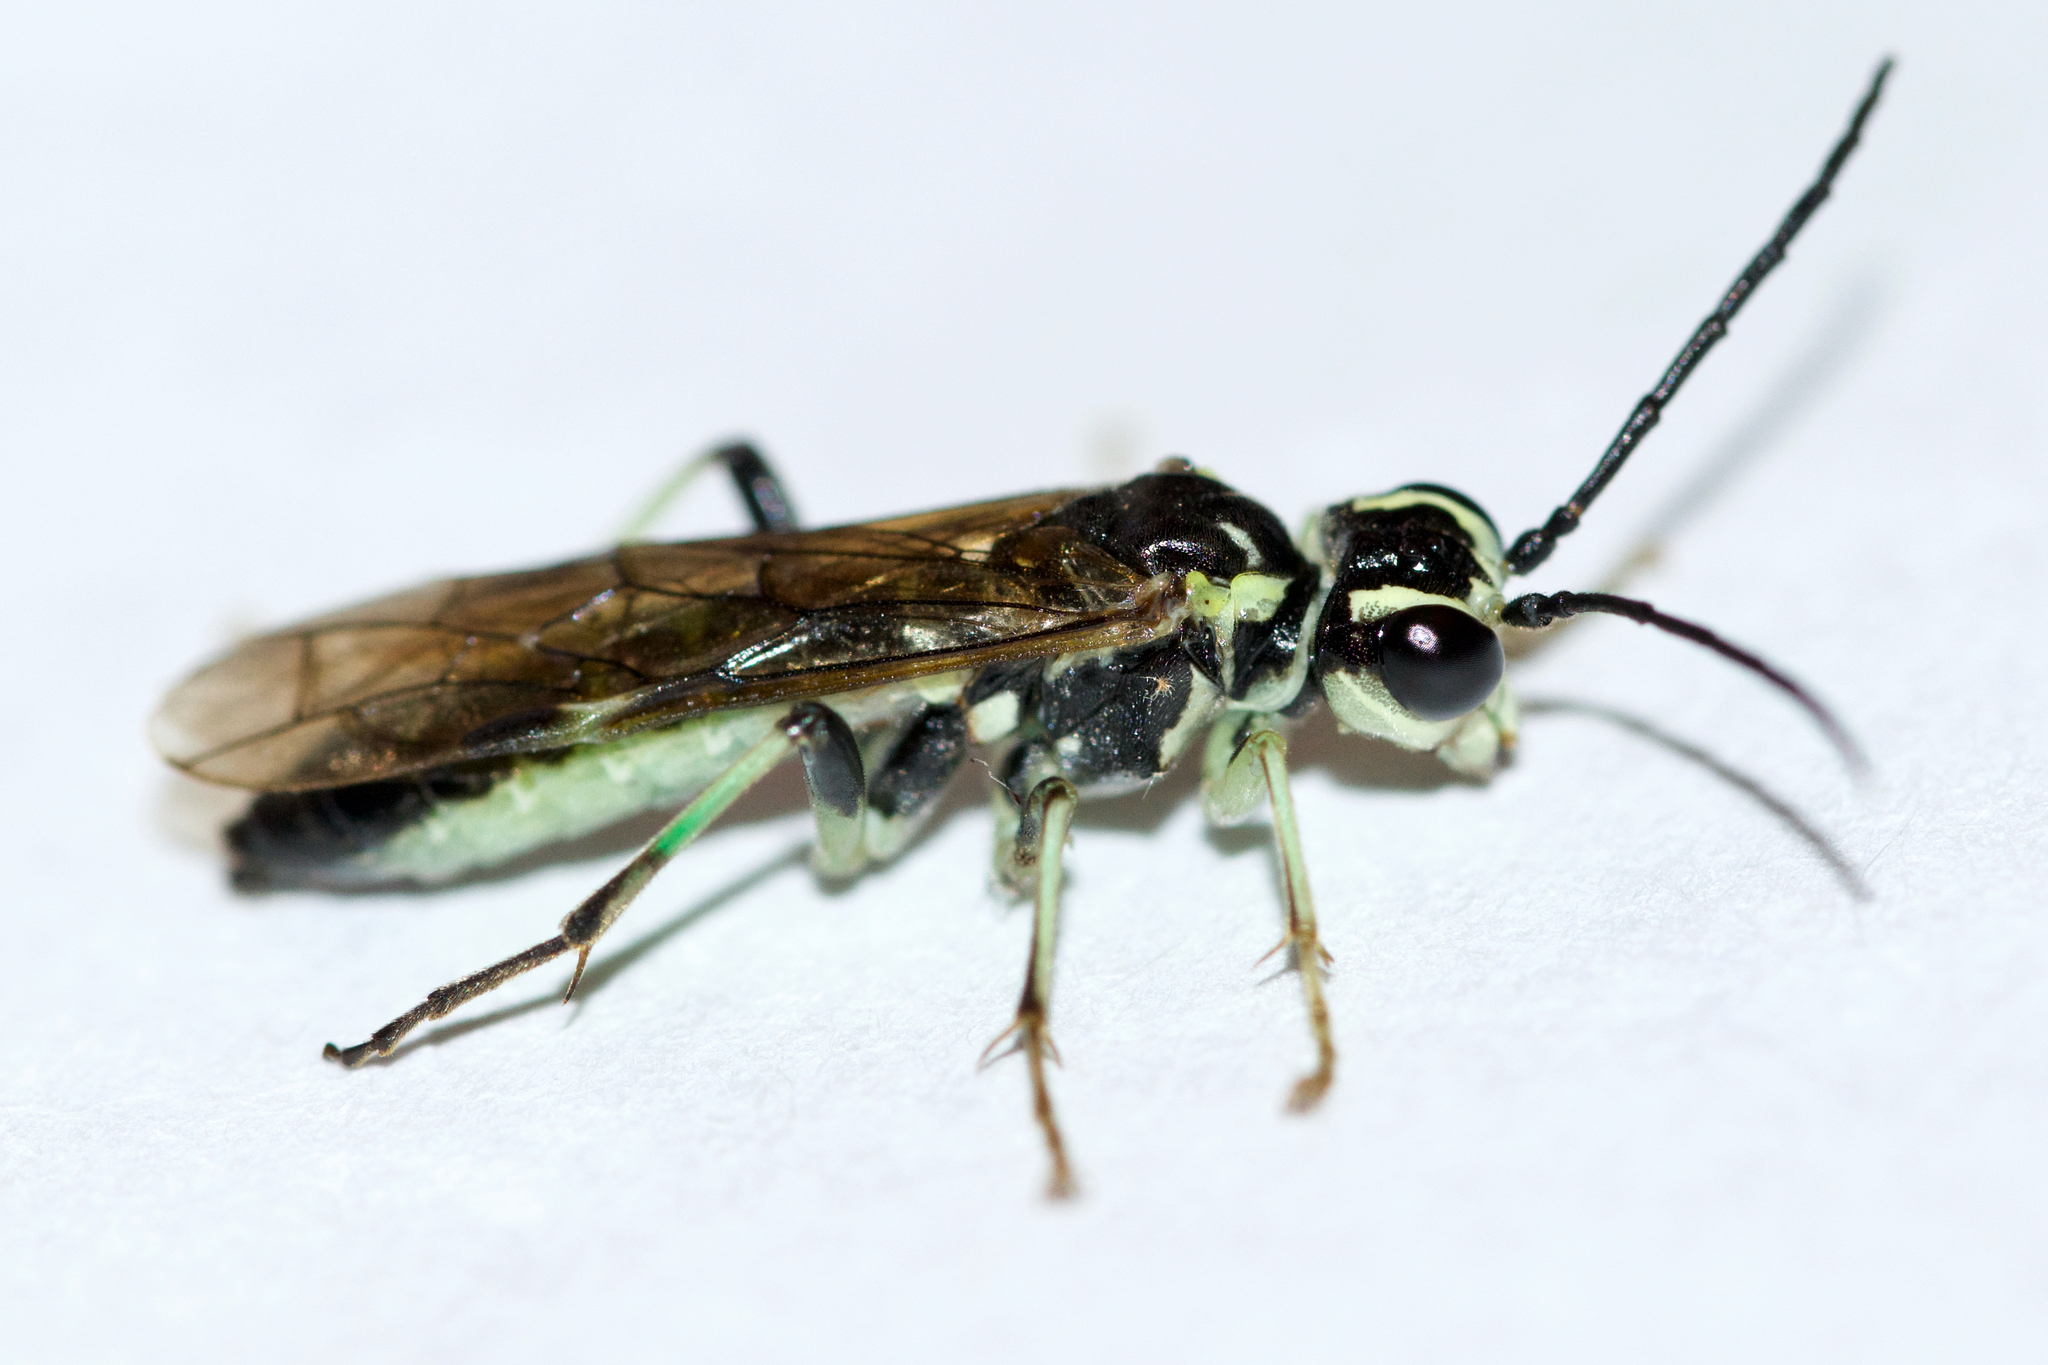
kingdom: Animalia
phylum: Arthropoda
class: Insecta
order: Hymenoptera
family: Tenthredinidae
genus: Tenthredo
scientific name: Tenthredo
